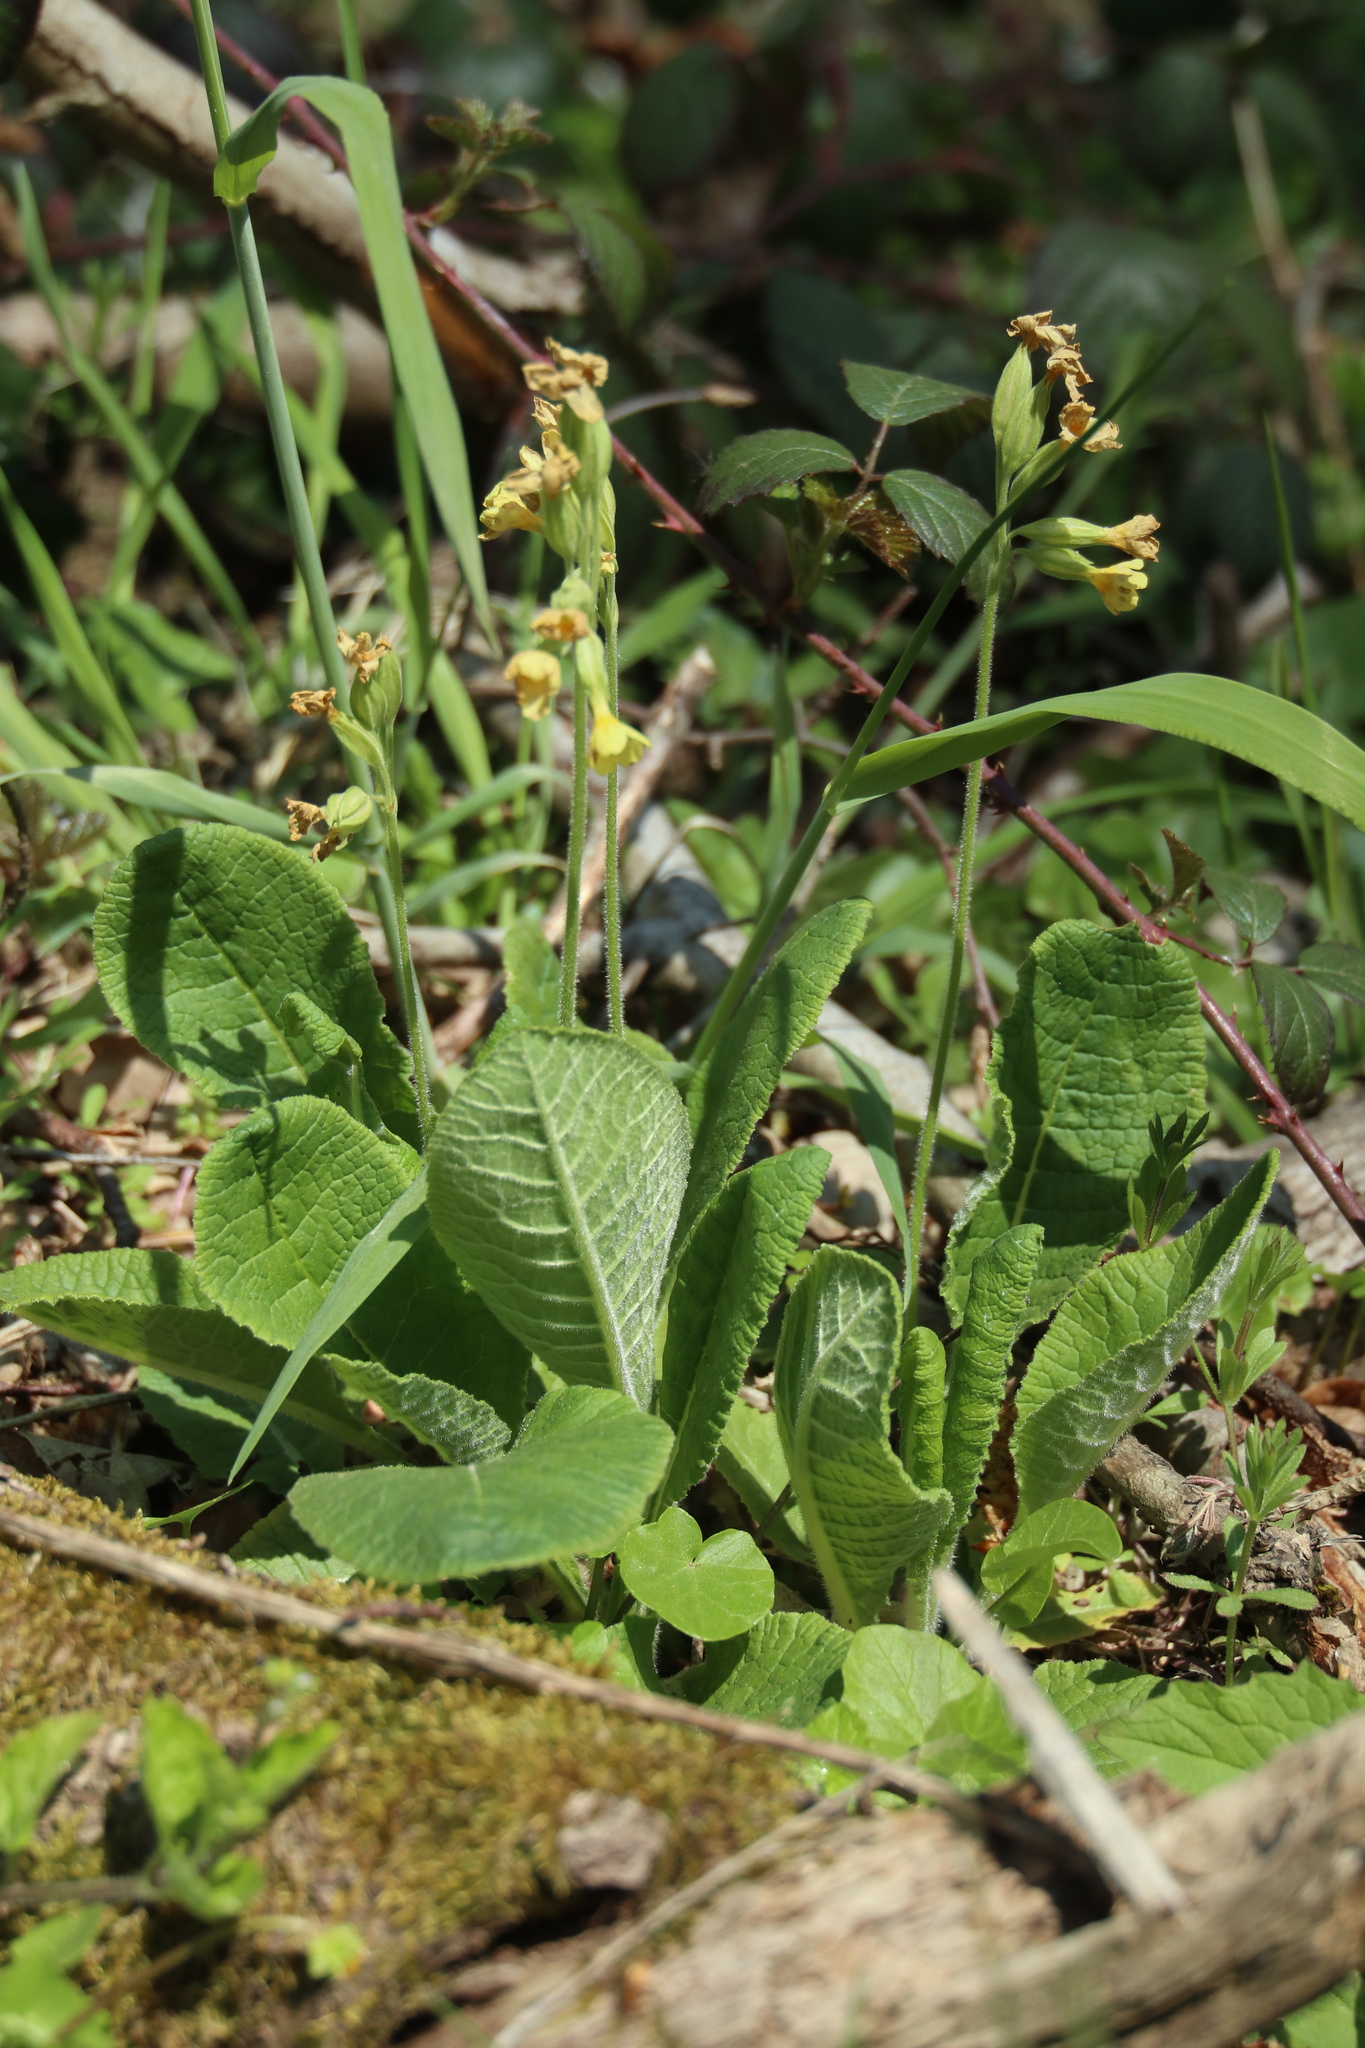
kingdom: Plantae
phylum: Tracheophyta
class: Magnoliopsida
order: Ericales
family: Primulaceae
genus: Primula
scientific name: Primula veris
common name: Cowslip
